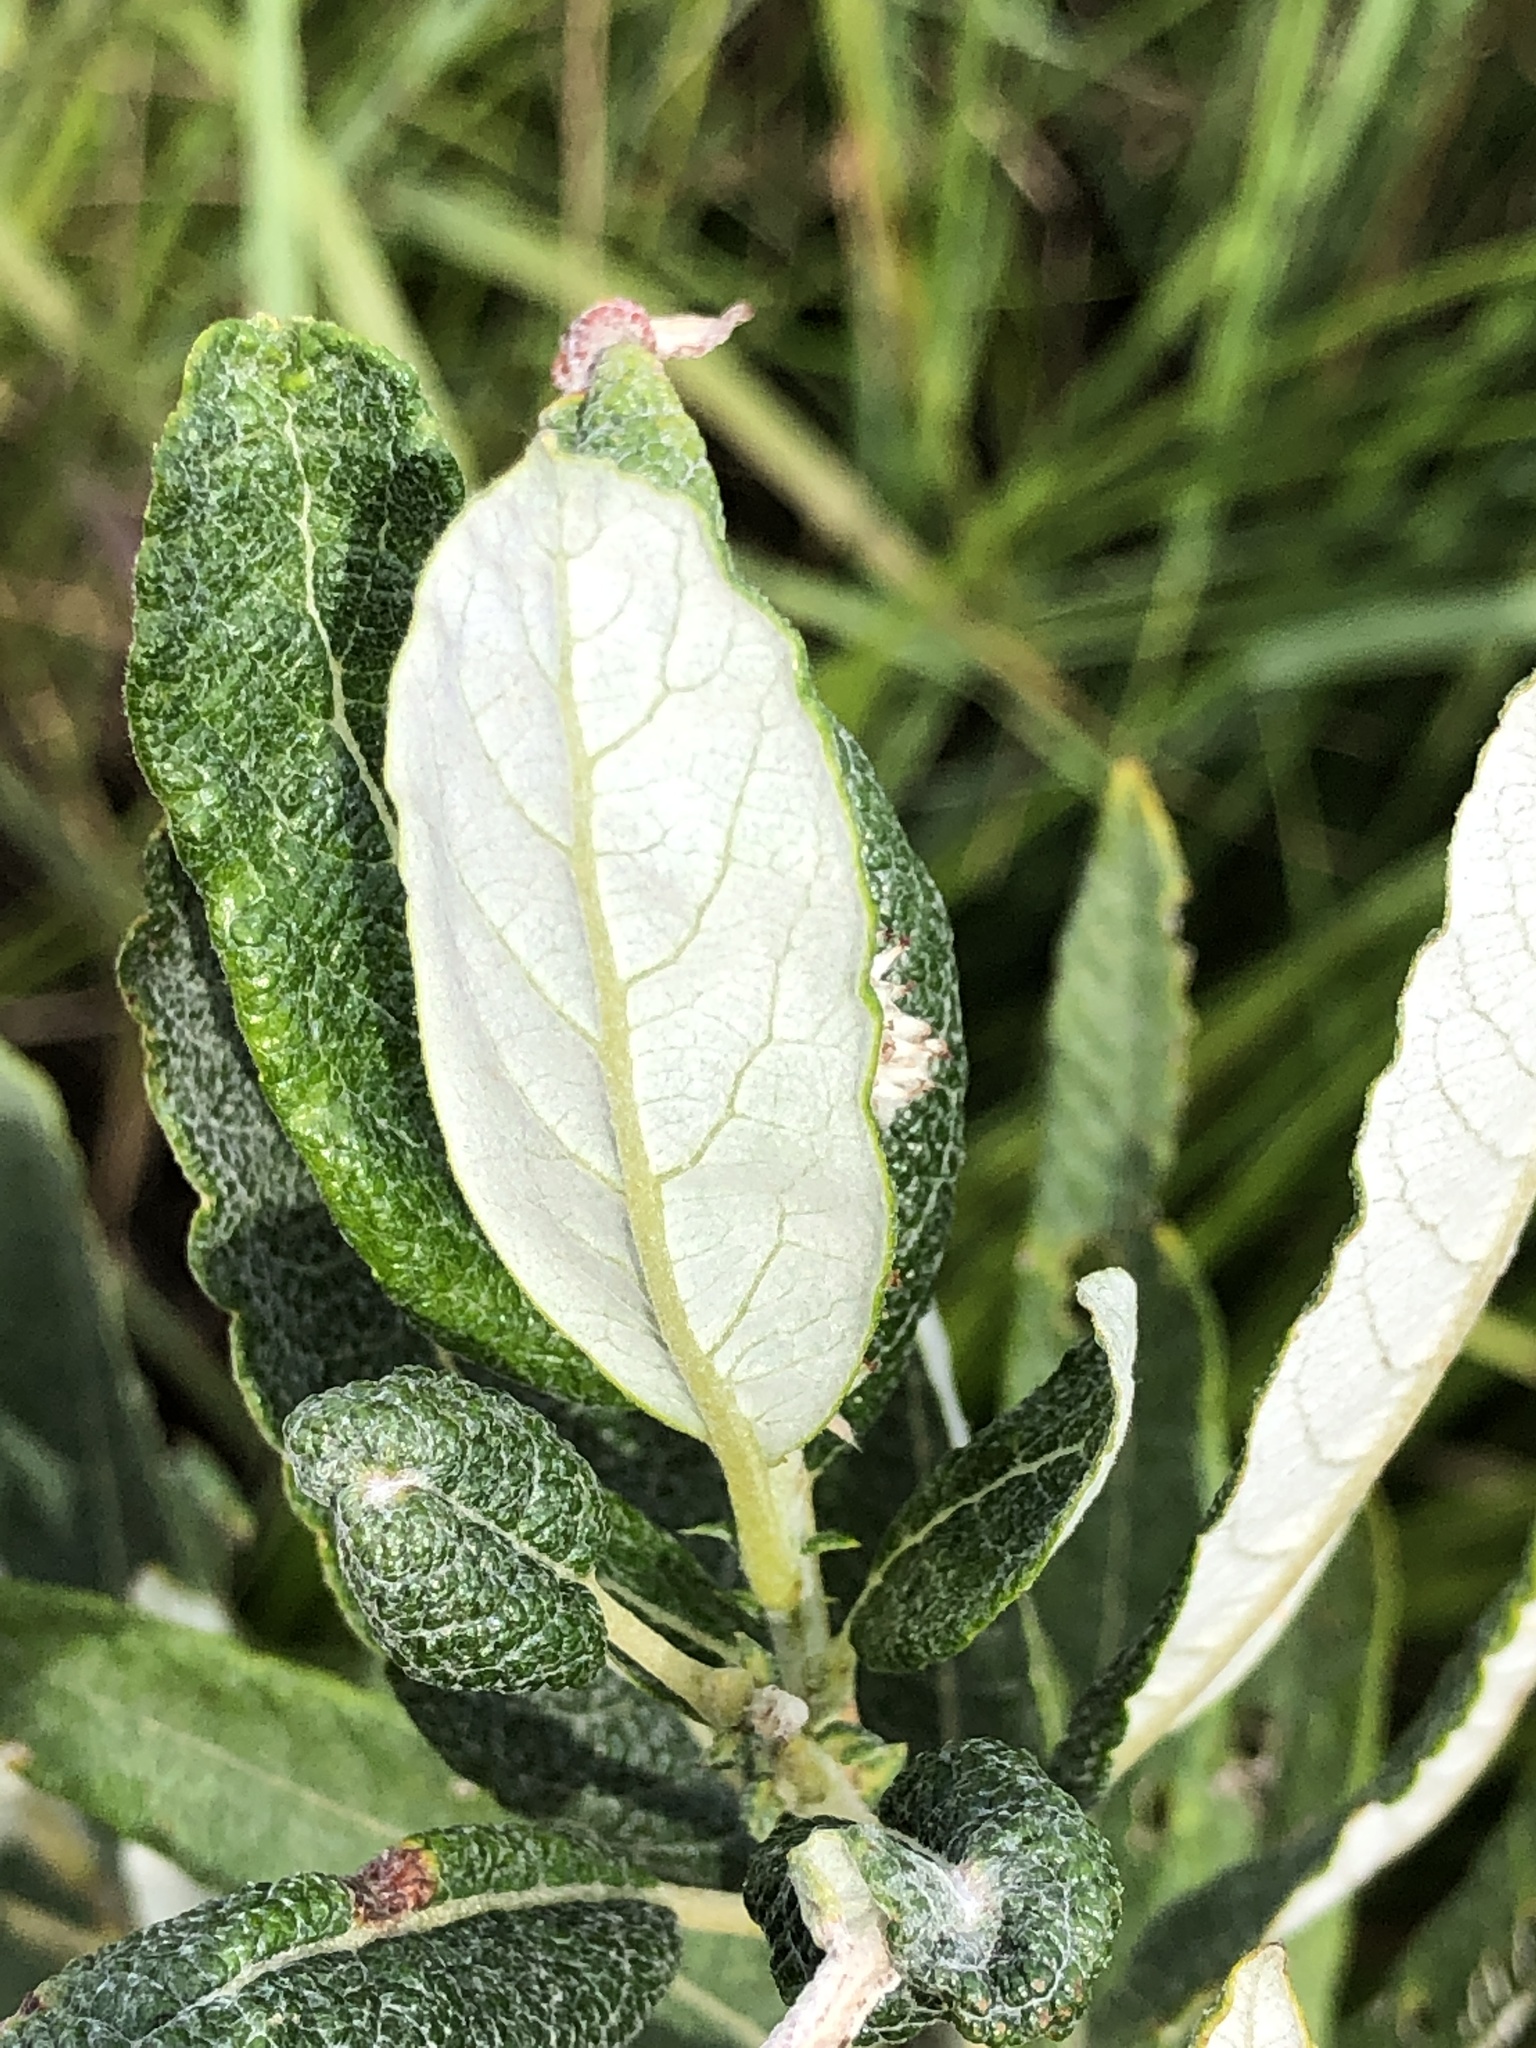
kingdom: Plantae
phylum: Tracheophyta
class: Magnoliopsida
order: Malpighiales
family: Salicaceae
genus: Salix
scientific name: Salix candida
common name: Hoary willow
